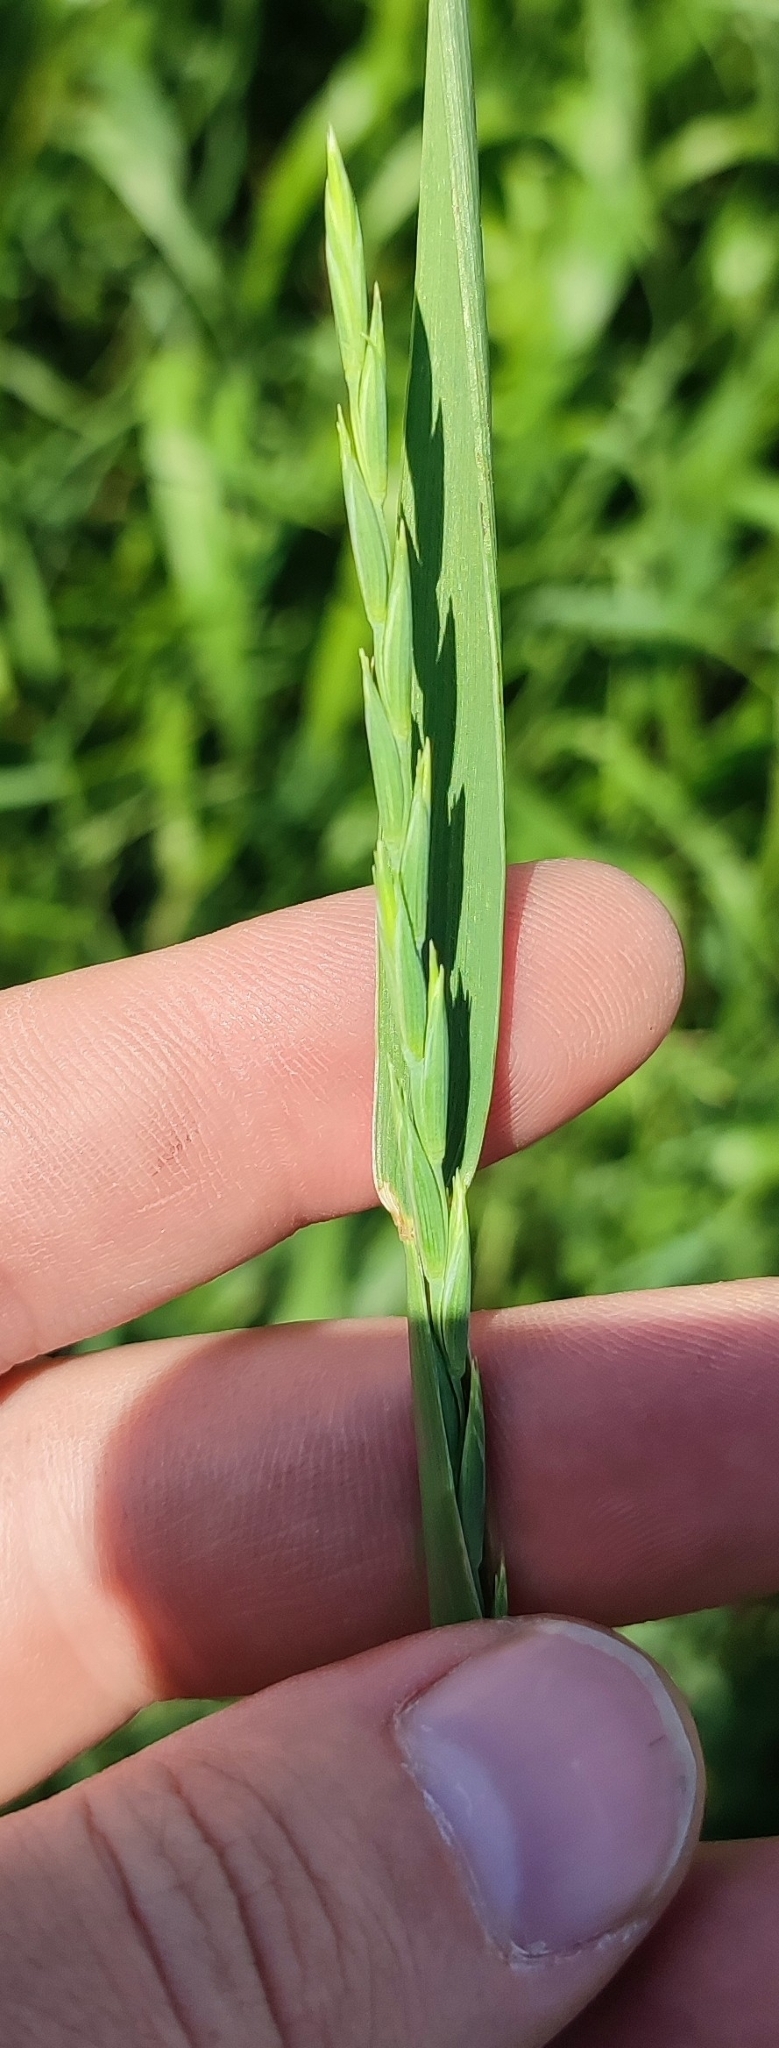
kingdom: Plantae
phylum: Tracheophyta
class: Liliopsida
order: Poales
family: Poaceae
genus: Elymus
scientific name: Elymus repens
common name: Quackgrass
